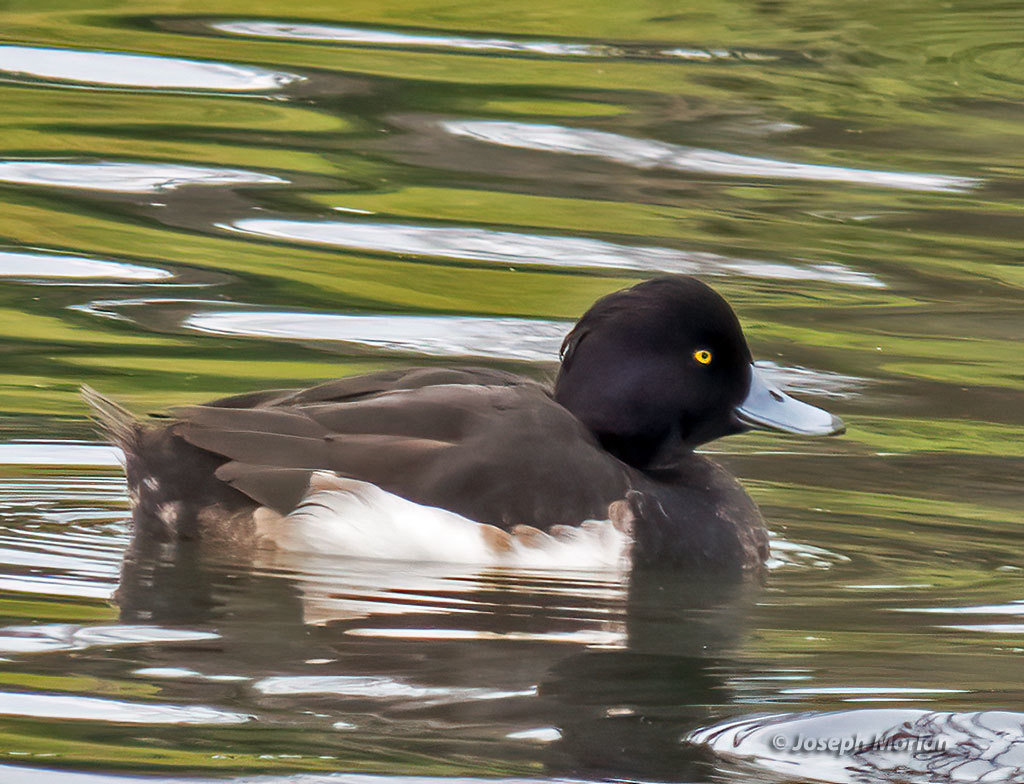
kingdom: Animalia
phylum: Chordata
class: Aves
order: Anseriformes
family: Anatidae
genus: Aythya
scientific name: Aythya fuligula
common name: Tufted duck
